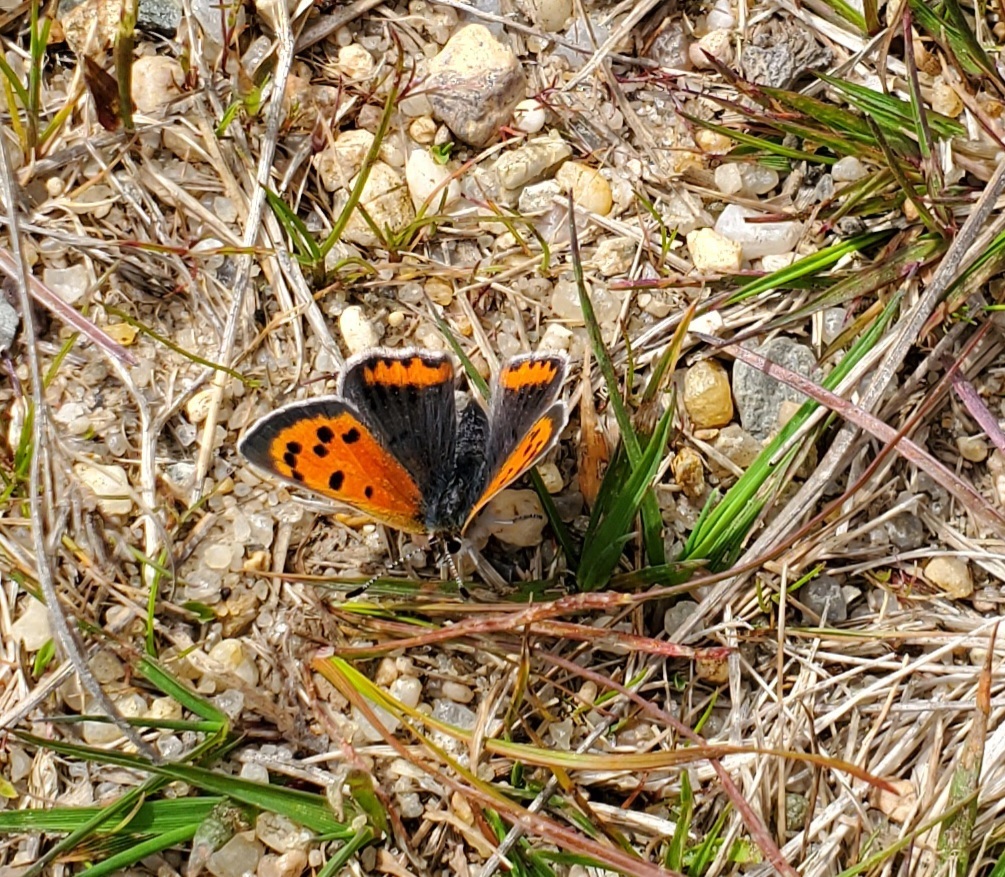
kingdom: Animalia
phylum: Arthropoda
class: Insecta
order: Lepidoptera
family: Lycaenidae
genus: Lycaena
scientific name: Lycaena hypophlaeas
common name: American copper
